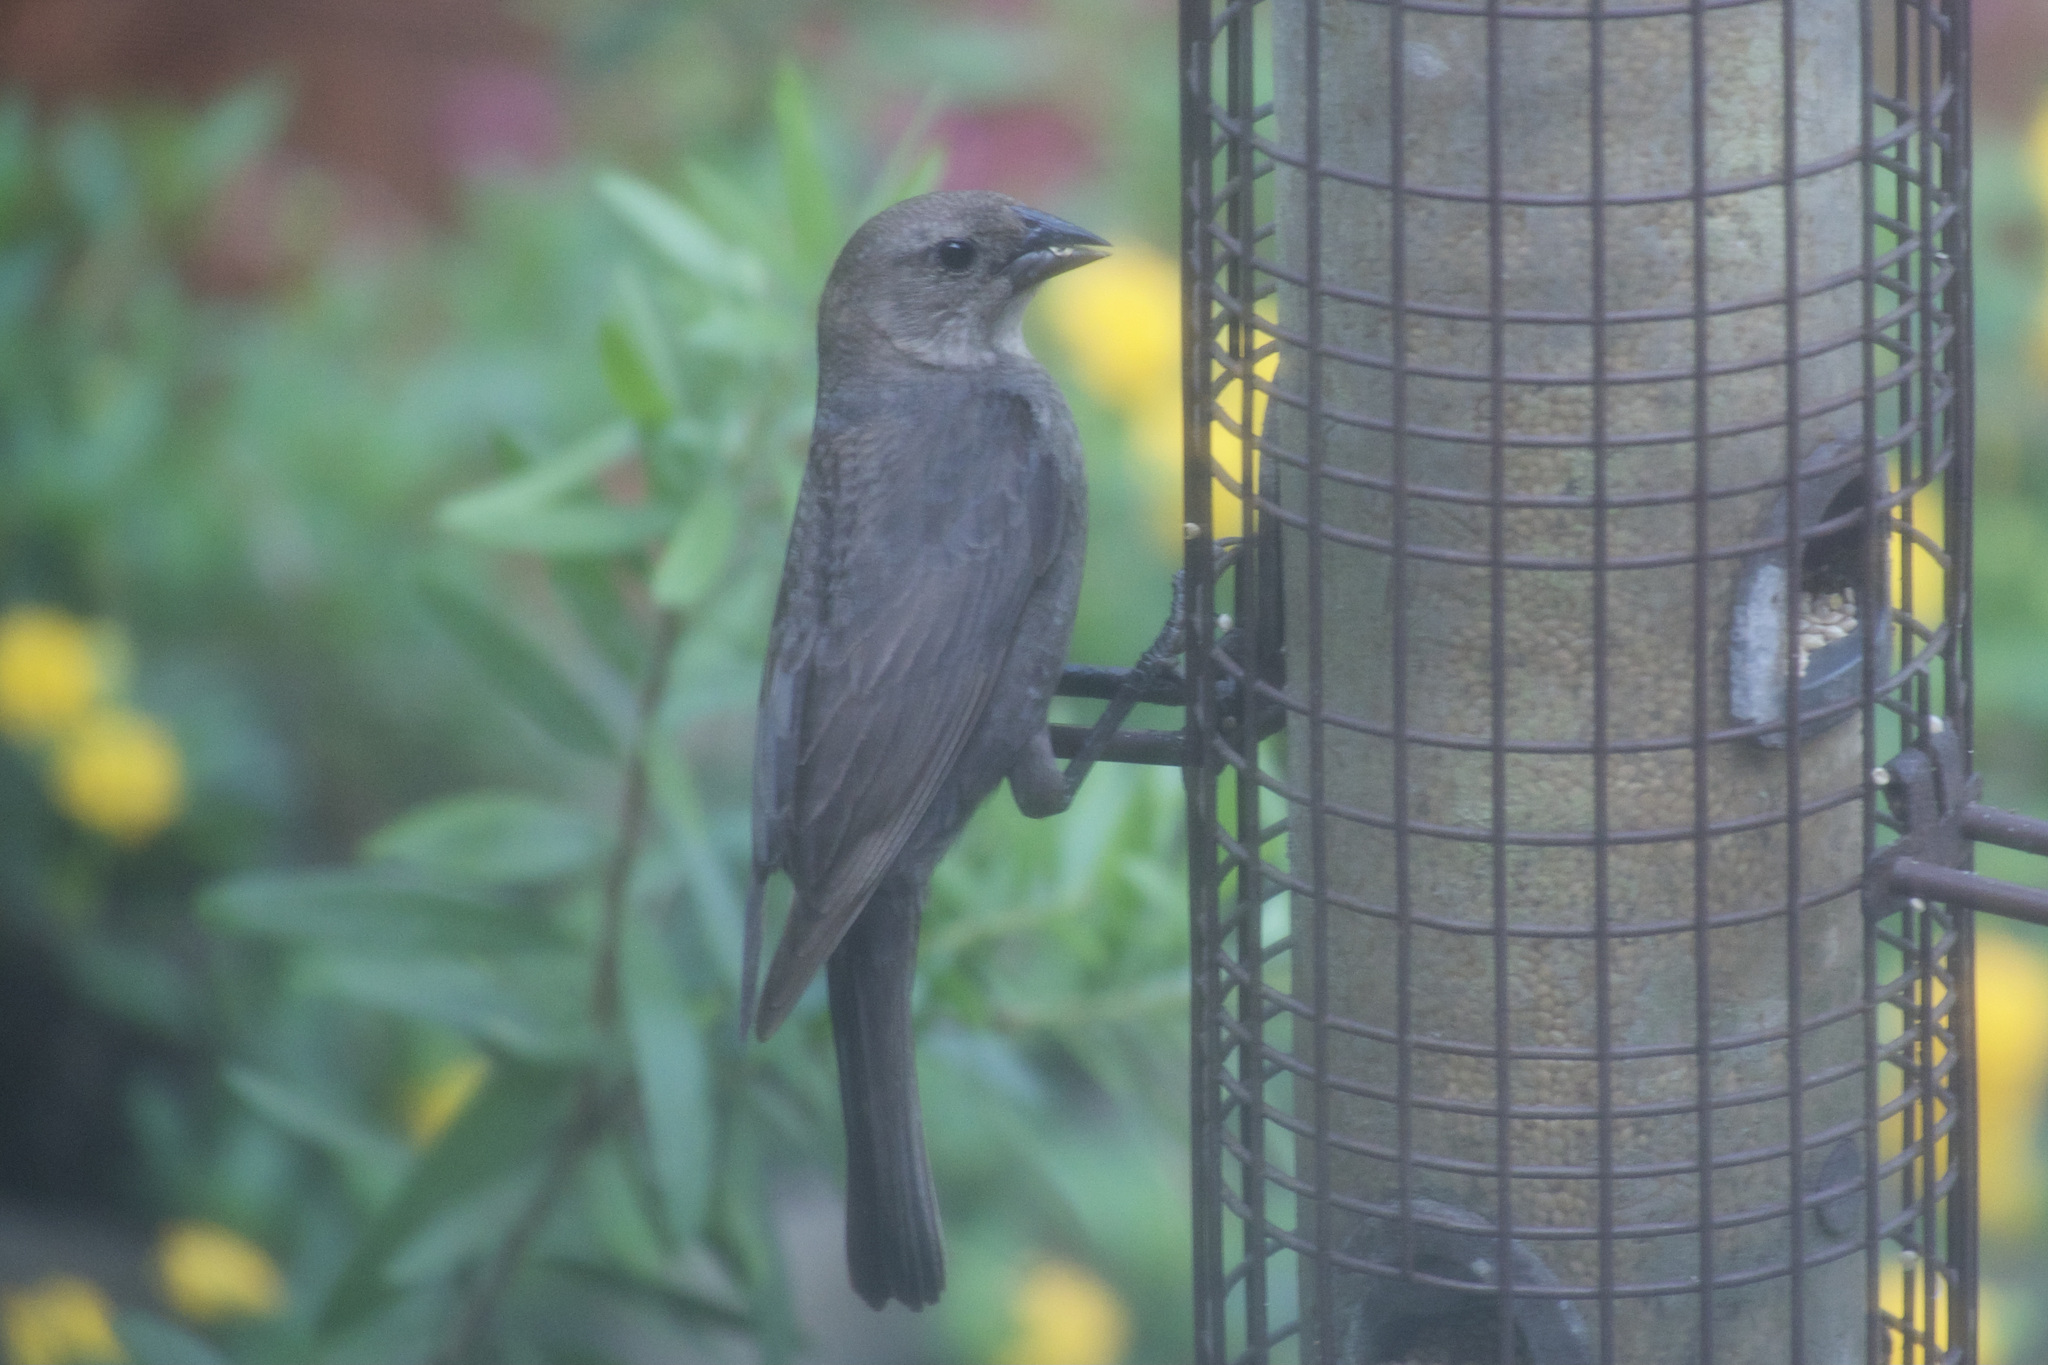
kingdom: Animalia
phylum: Chordata
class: Aves
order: Passeriformes
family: Icteridae
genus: Molothrus
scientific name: Molothrus ater
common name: Brown-headed cowbird
